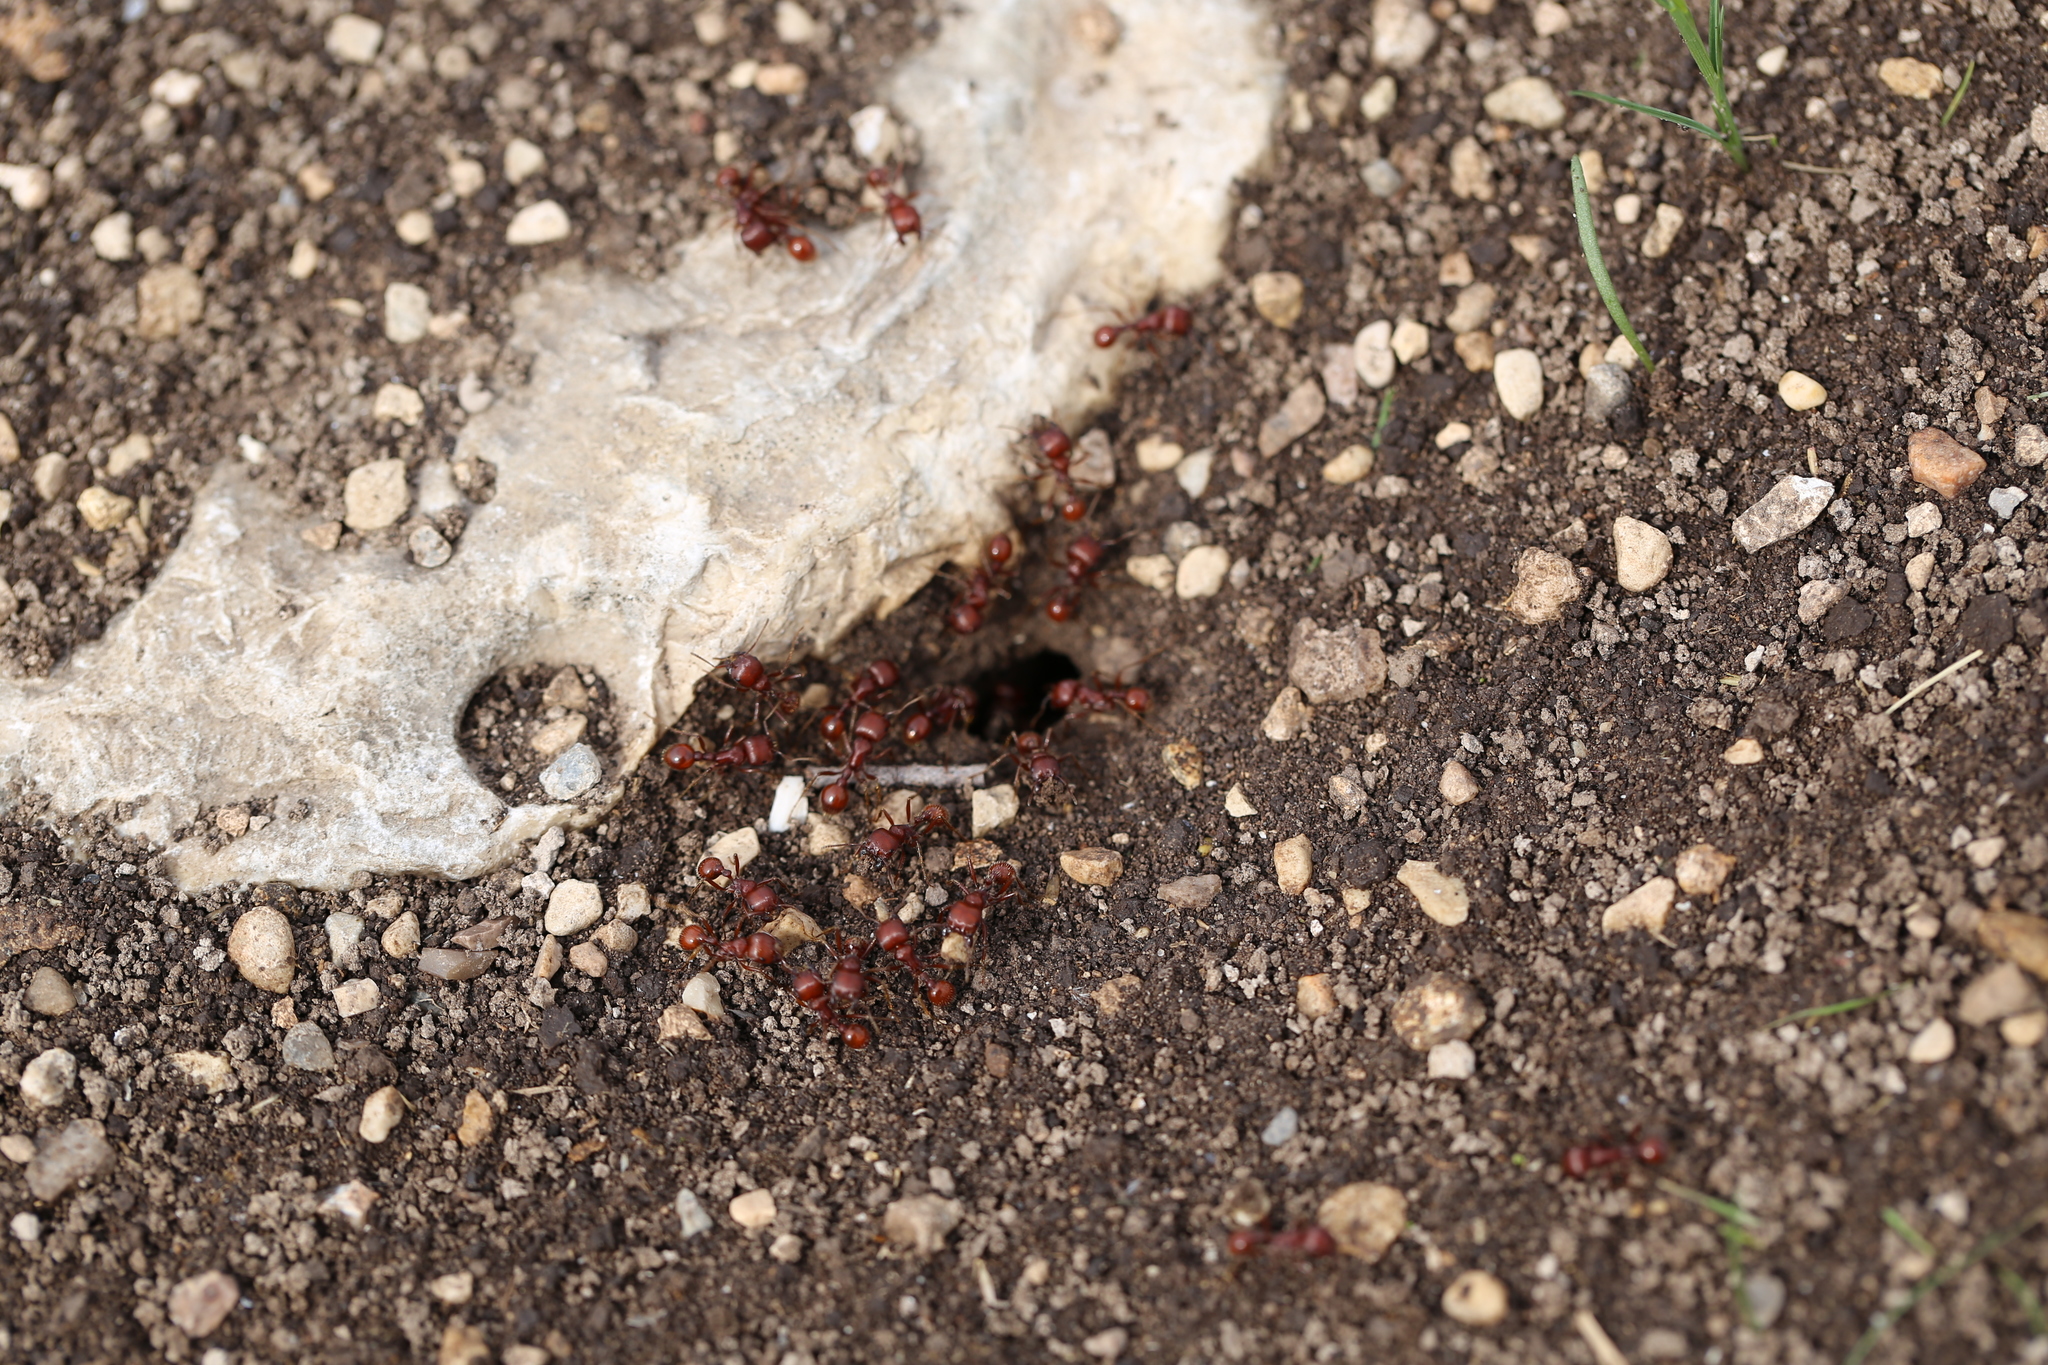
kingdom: Animalia
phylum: Arthropoda
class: Insecta
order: Hymenoptera
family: Formicidae
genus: Pogonomyrmex
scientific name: Pogonomyrmex barbatus
